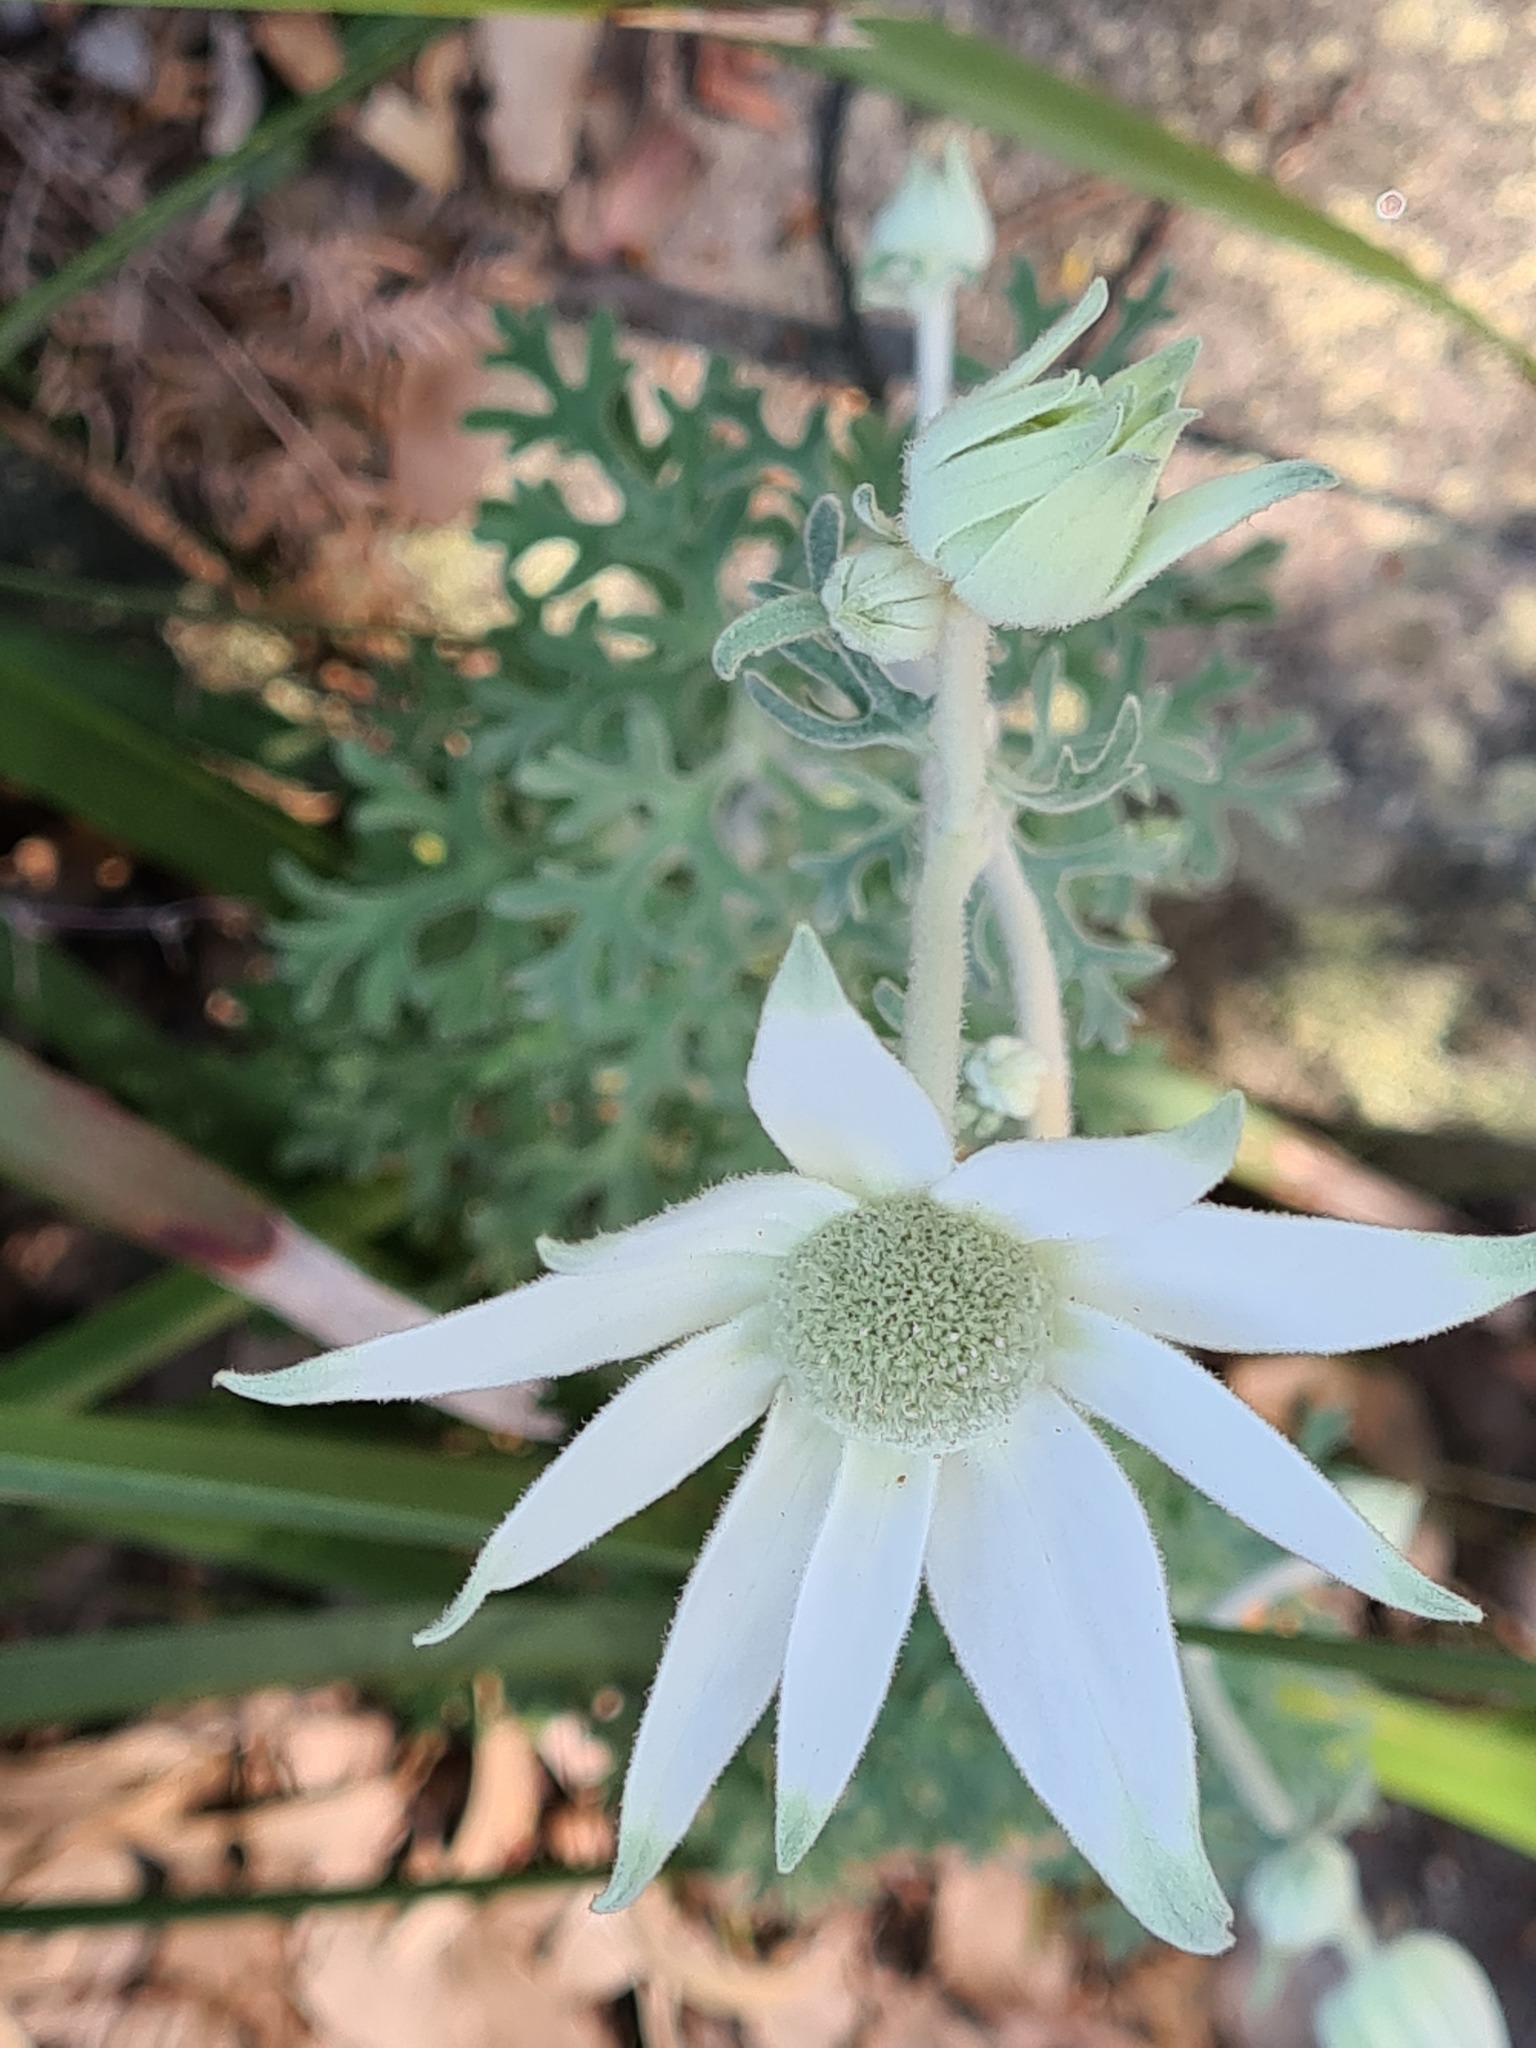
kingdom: Plantae
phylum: Tracheophyta
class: Magnoliopsida
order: Apiales
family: Apiaceae
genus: Actinotus
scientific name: Actinotus helianthi
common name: Flannel-flower
